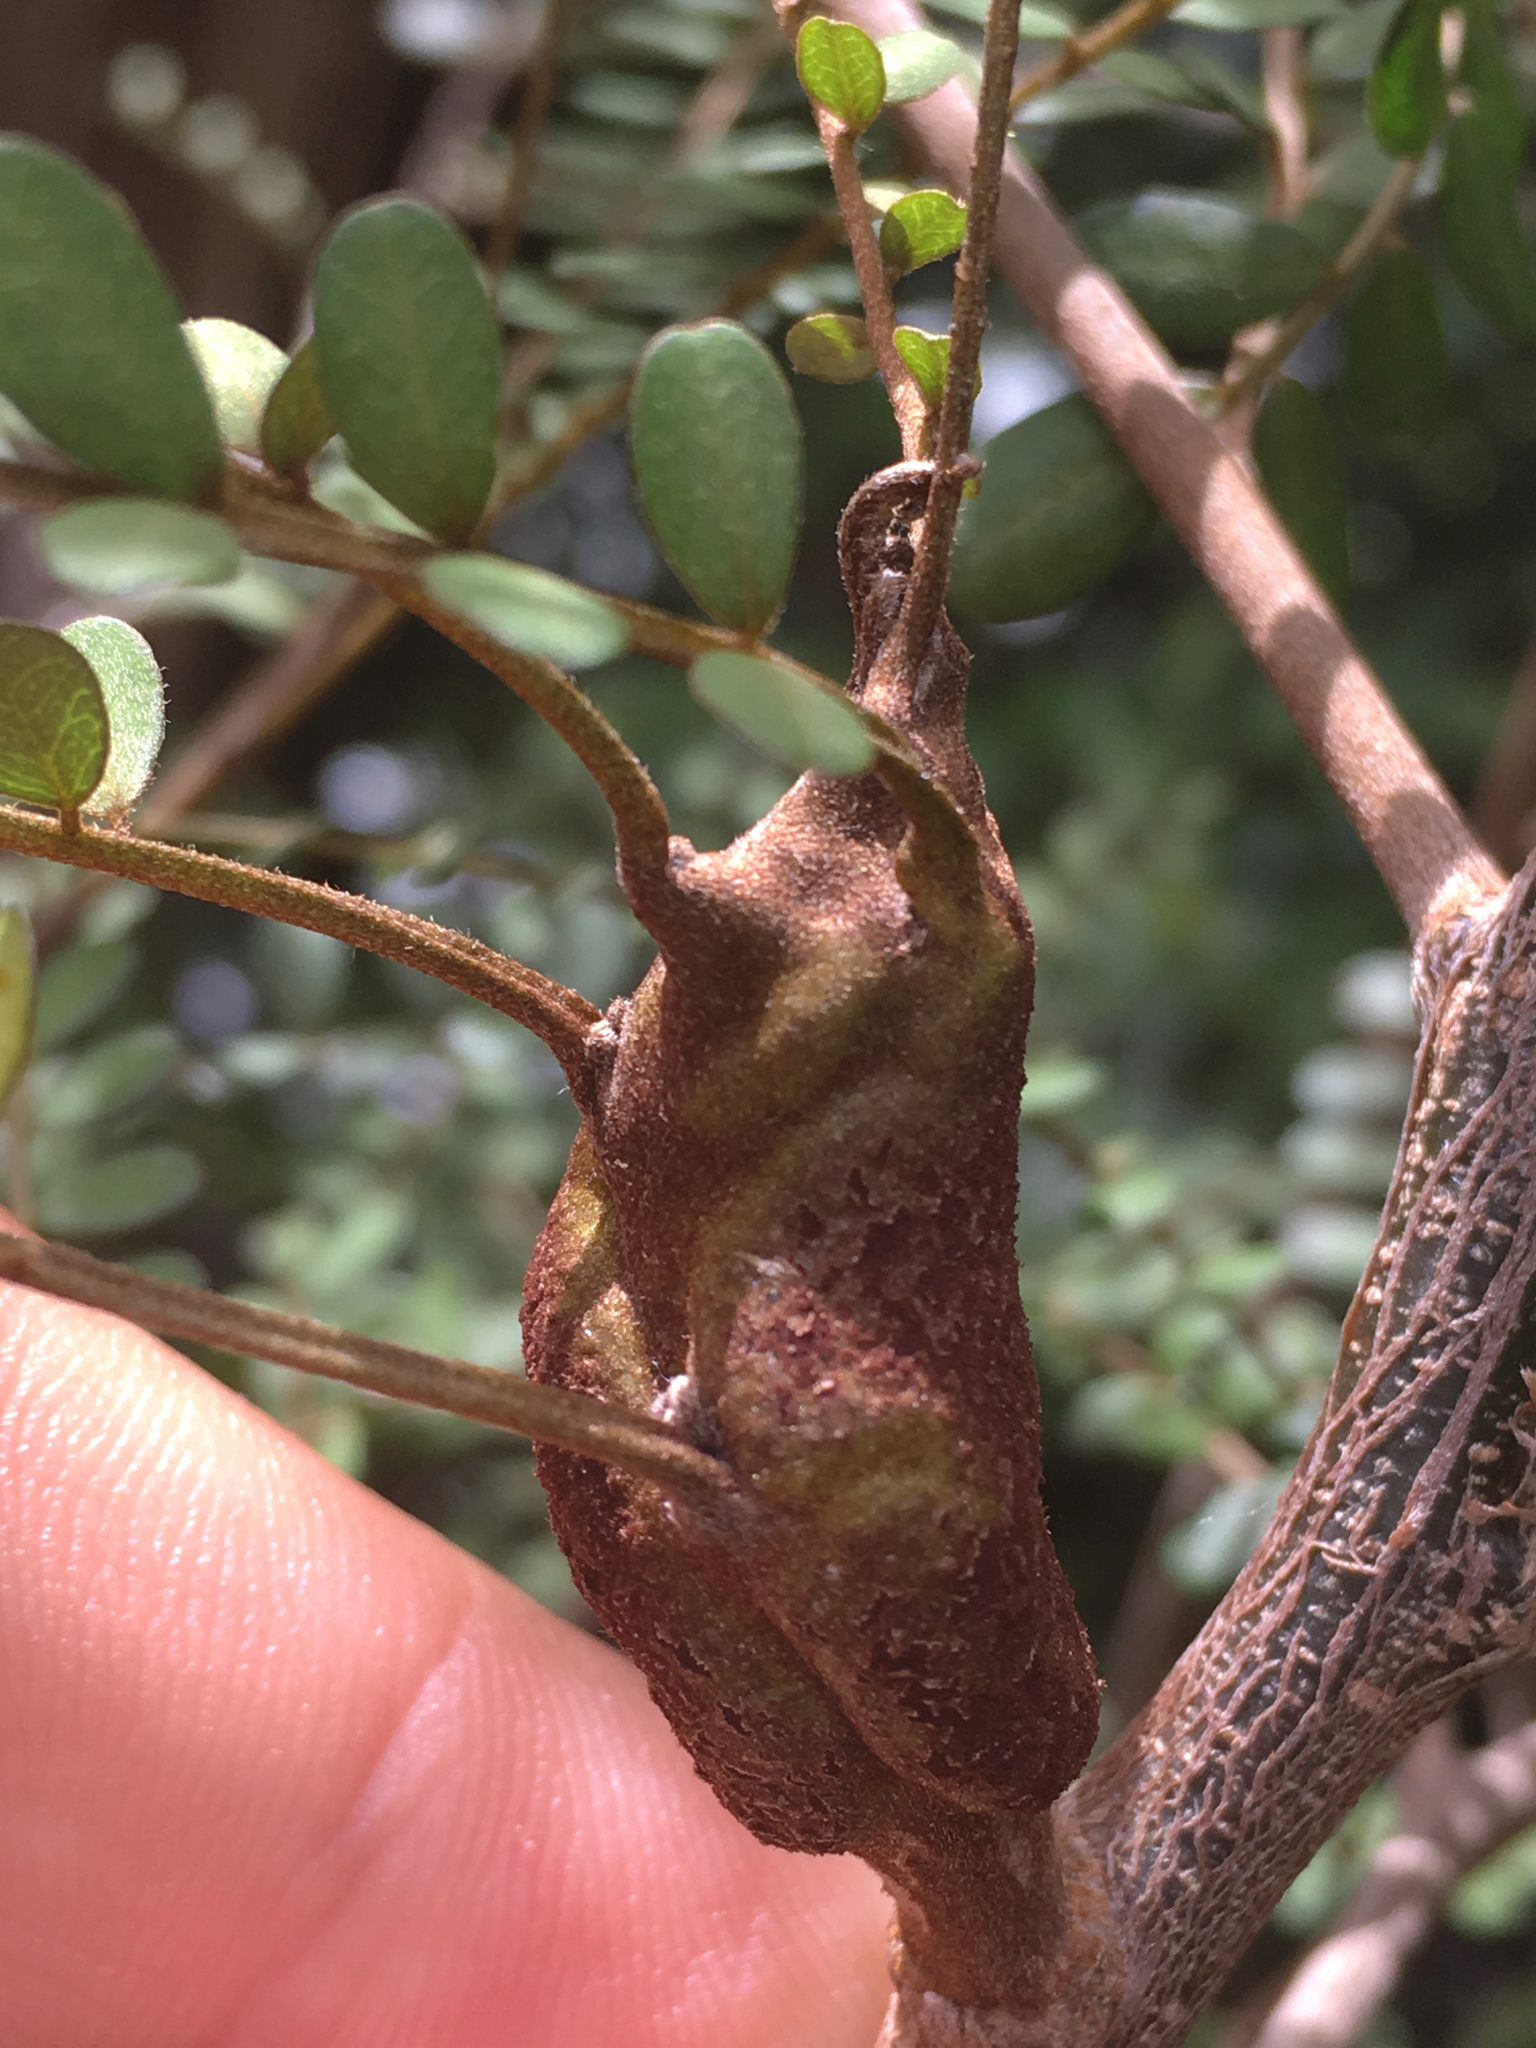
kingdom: Fungi
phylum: Basidiomycota
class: Pucciniomycetes
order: Pucciniales
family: Pucciniaceae
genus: Uromyces
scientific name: Uromyces edwardsiae
